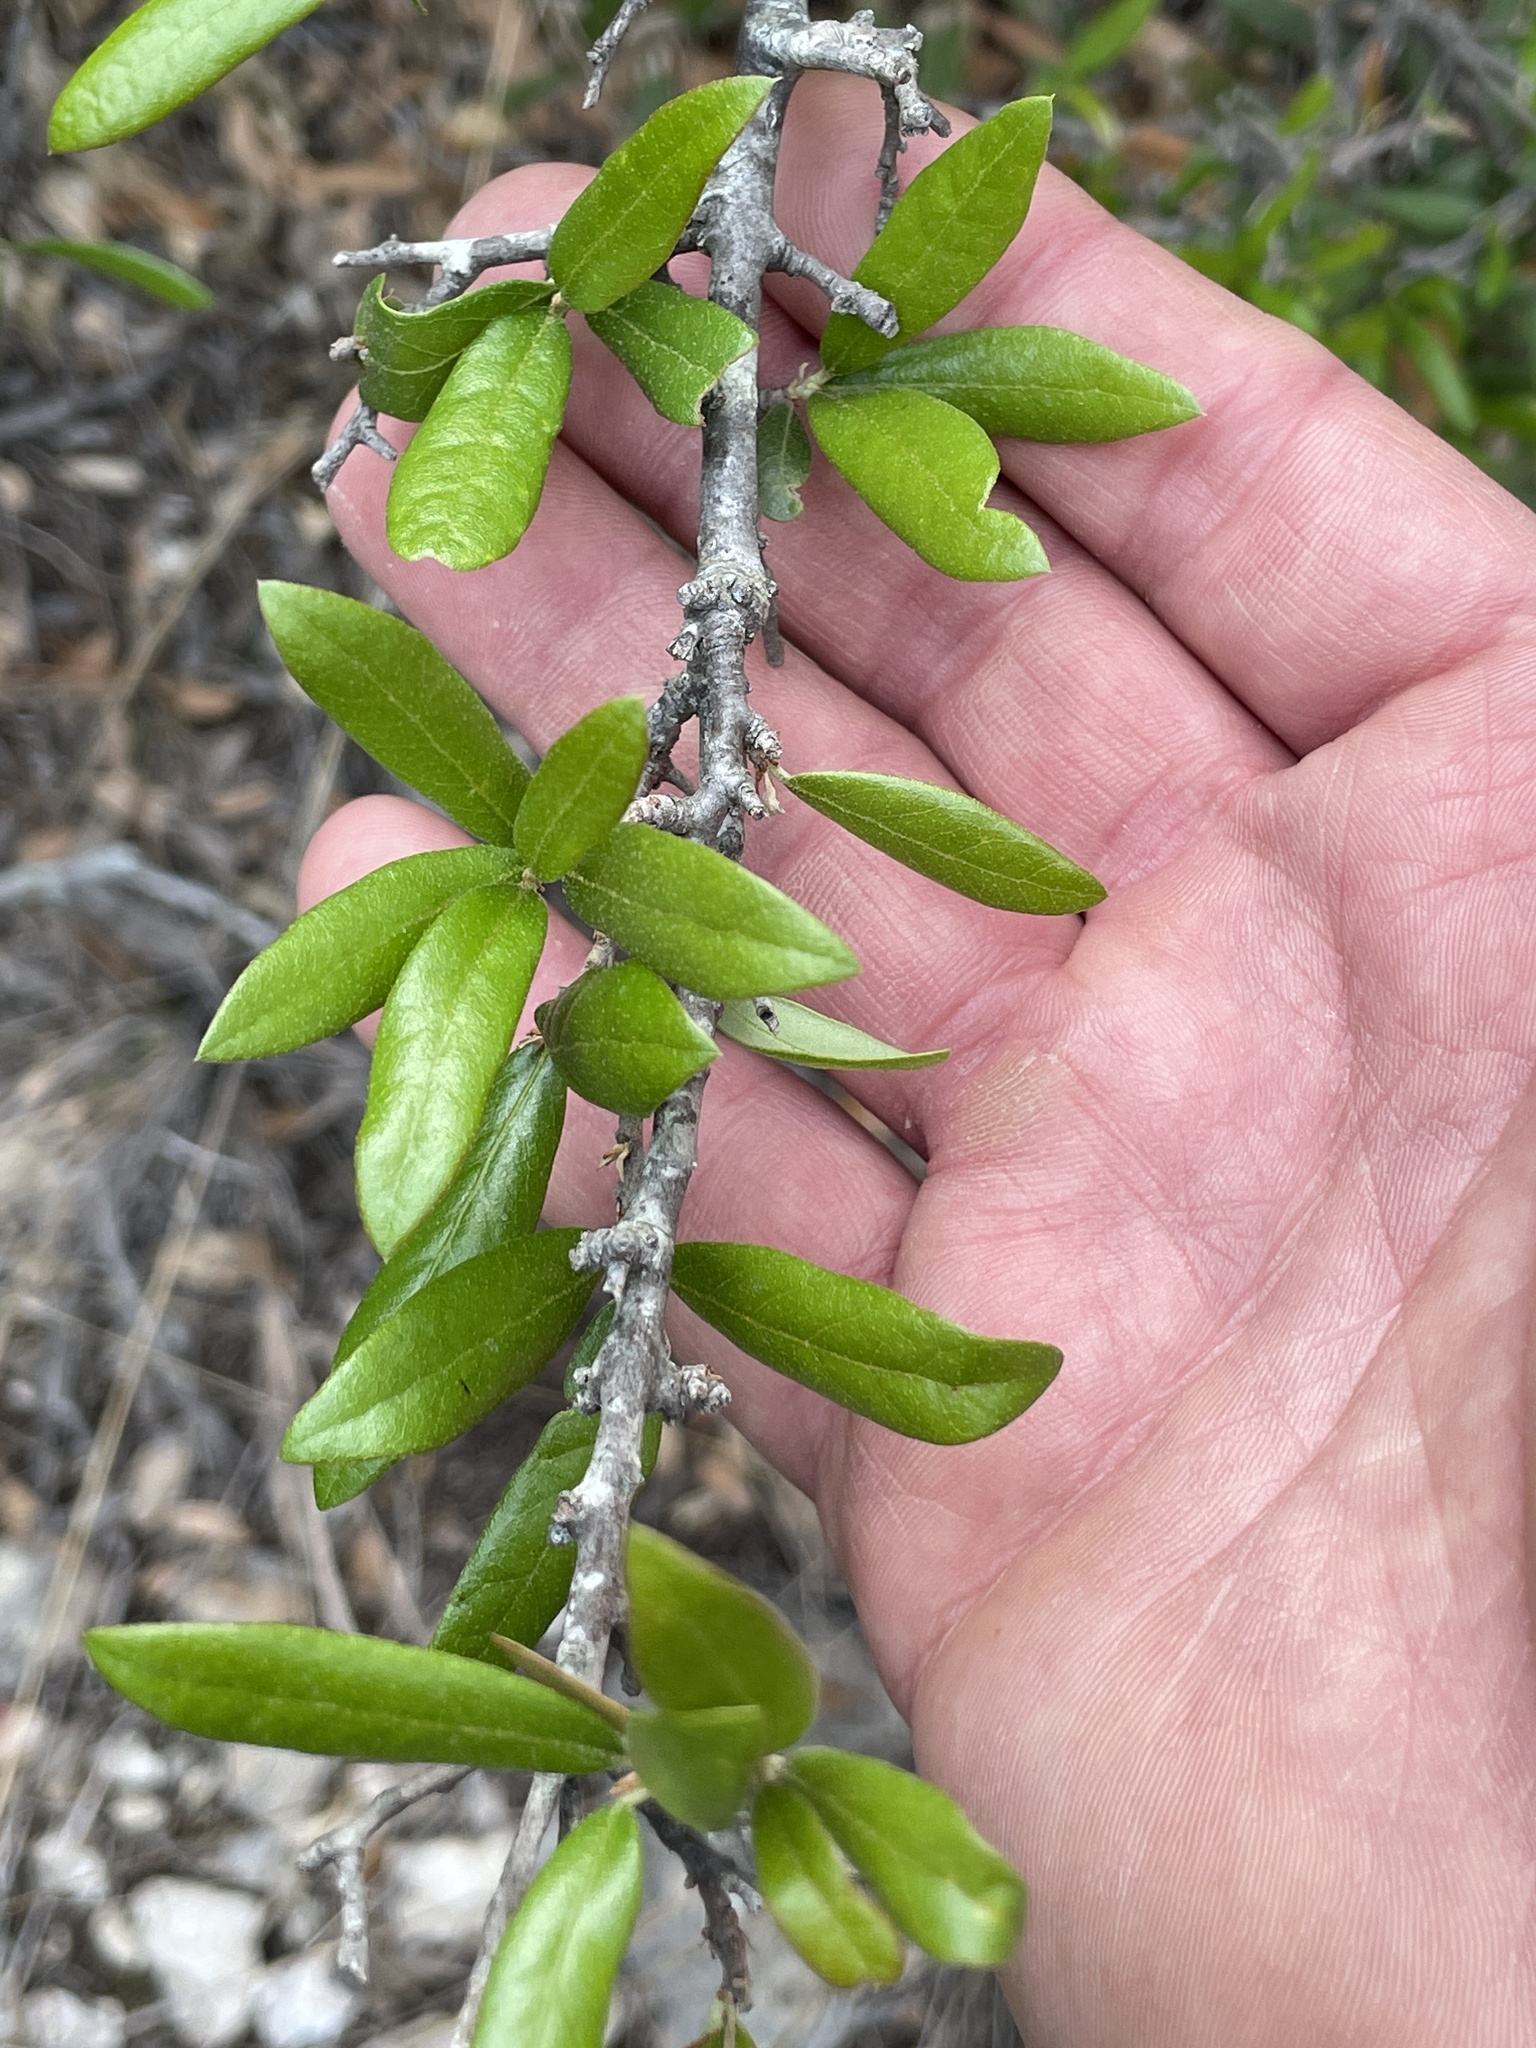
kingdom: Plantae
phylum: Tracheophyta
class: Magnoliopsida
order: Fagales
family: Fagaceae
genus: Quercus
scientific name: Quercus fusiformis
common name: Texas live oak
